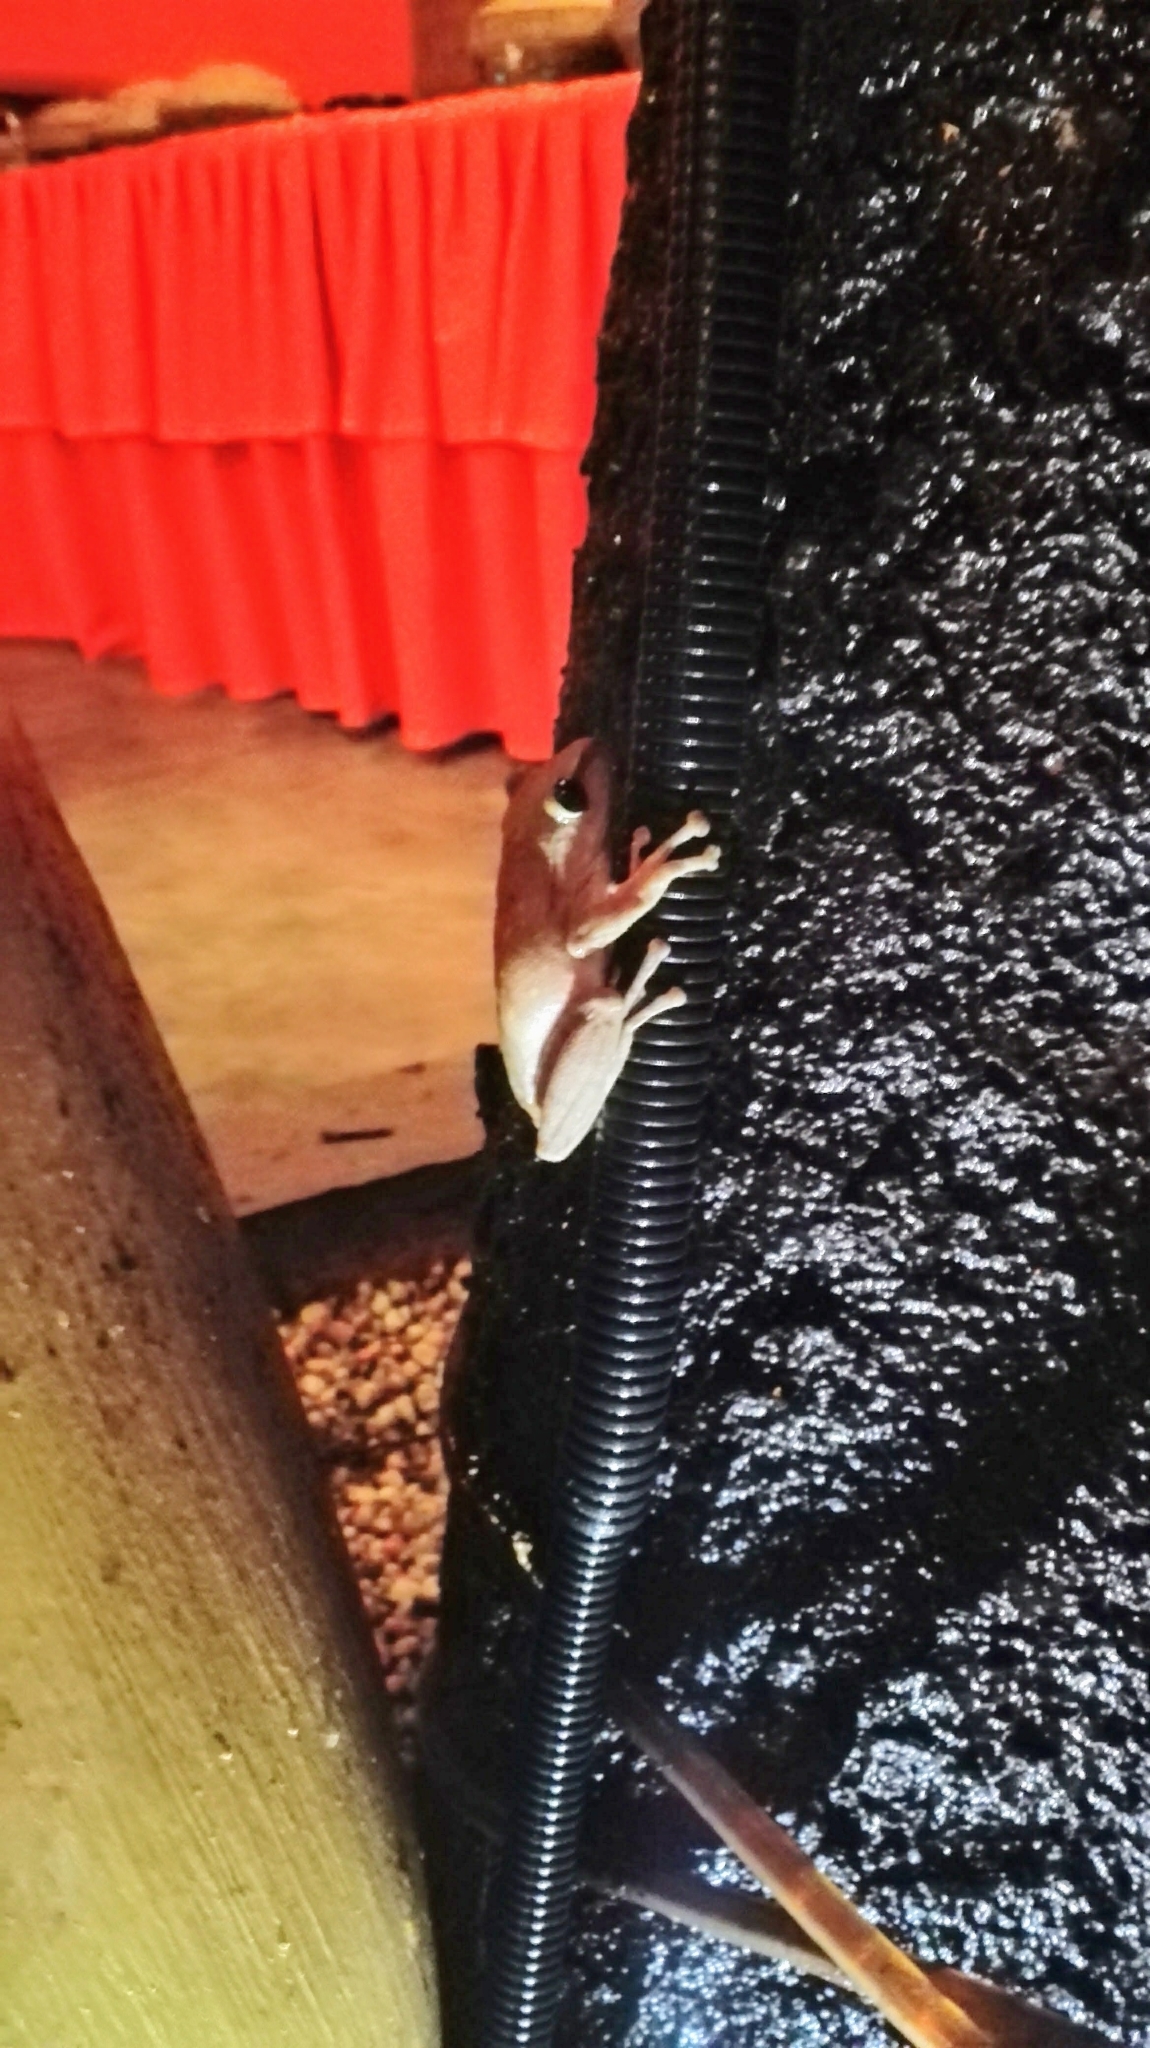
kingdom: Animalia
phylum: Chordata
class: Amphibia
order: Anura
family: Rhacophoridae
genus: Polypedates
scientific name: Polypedates megacephalus
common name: Hong kong whipping frog
